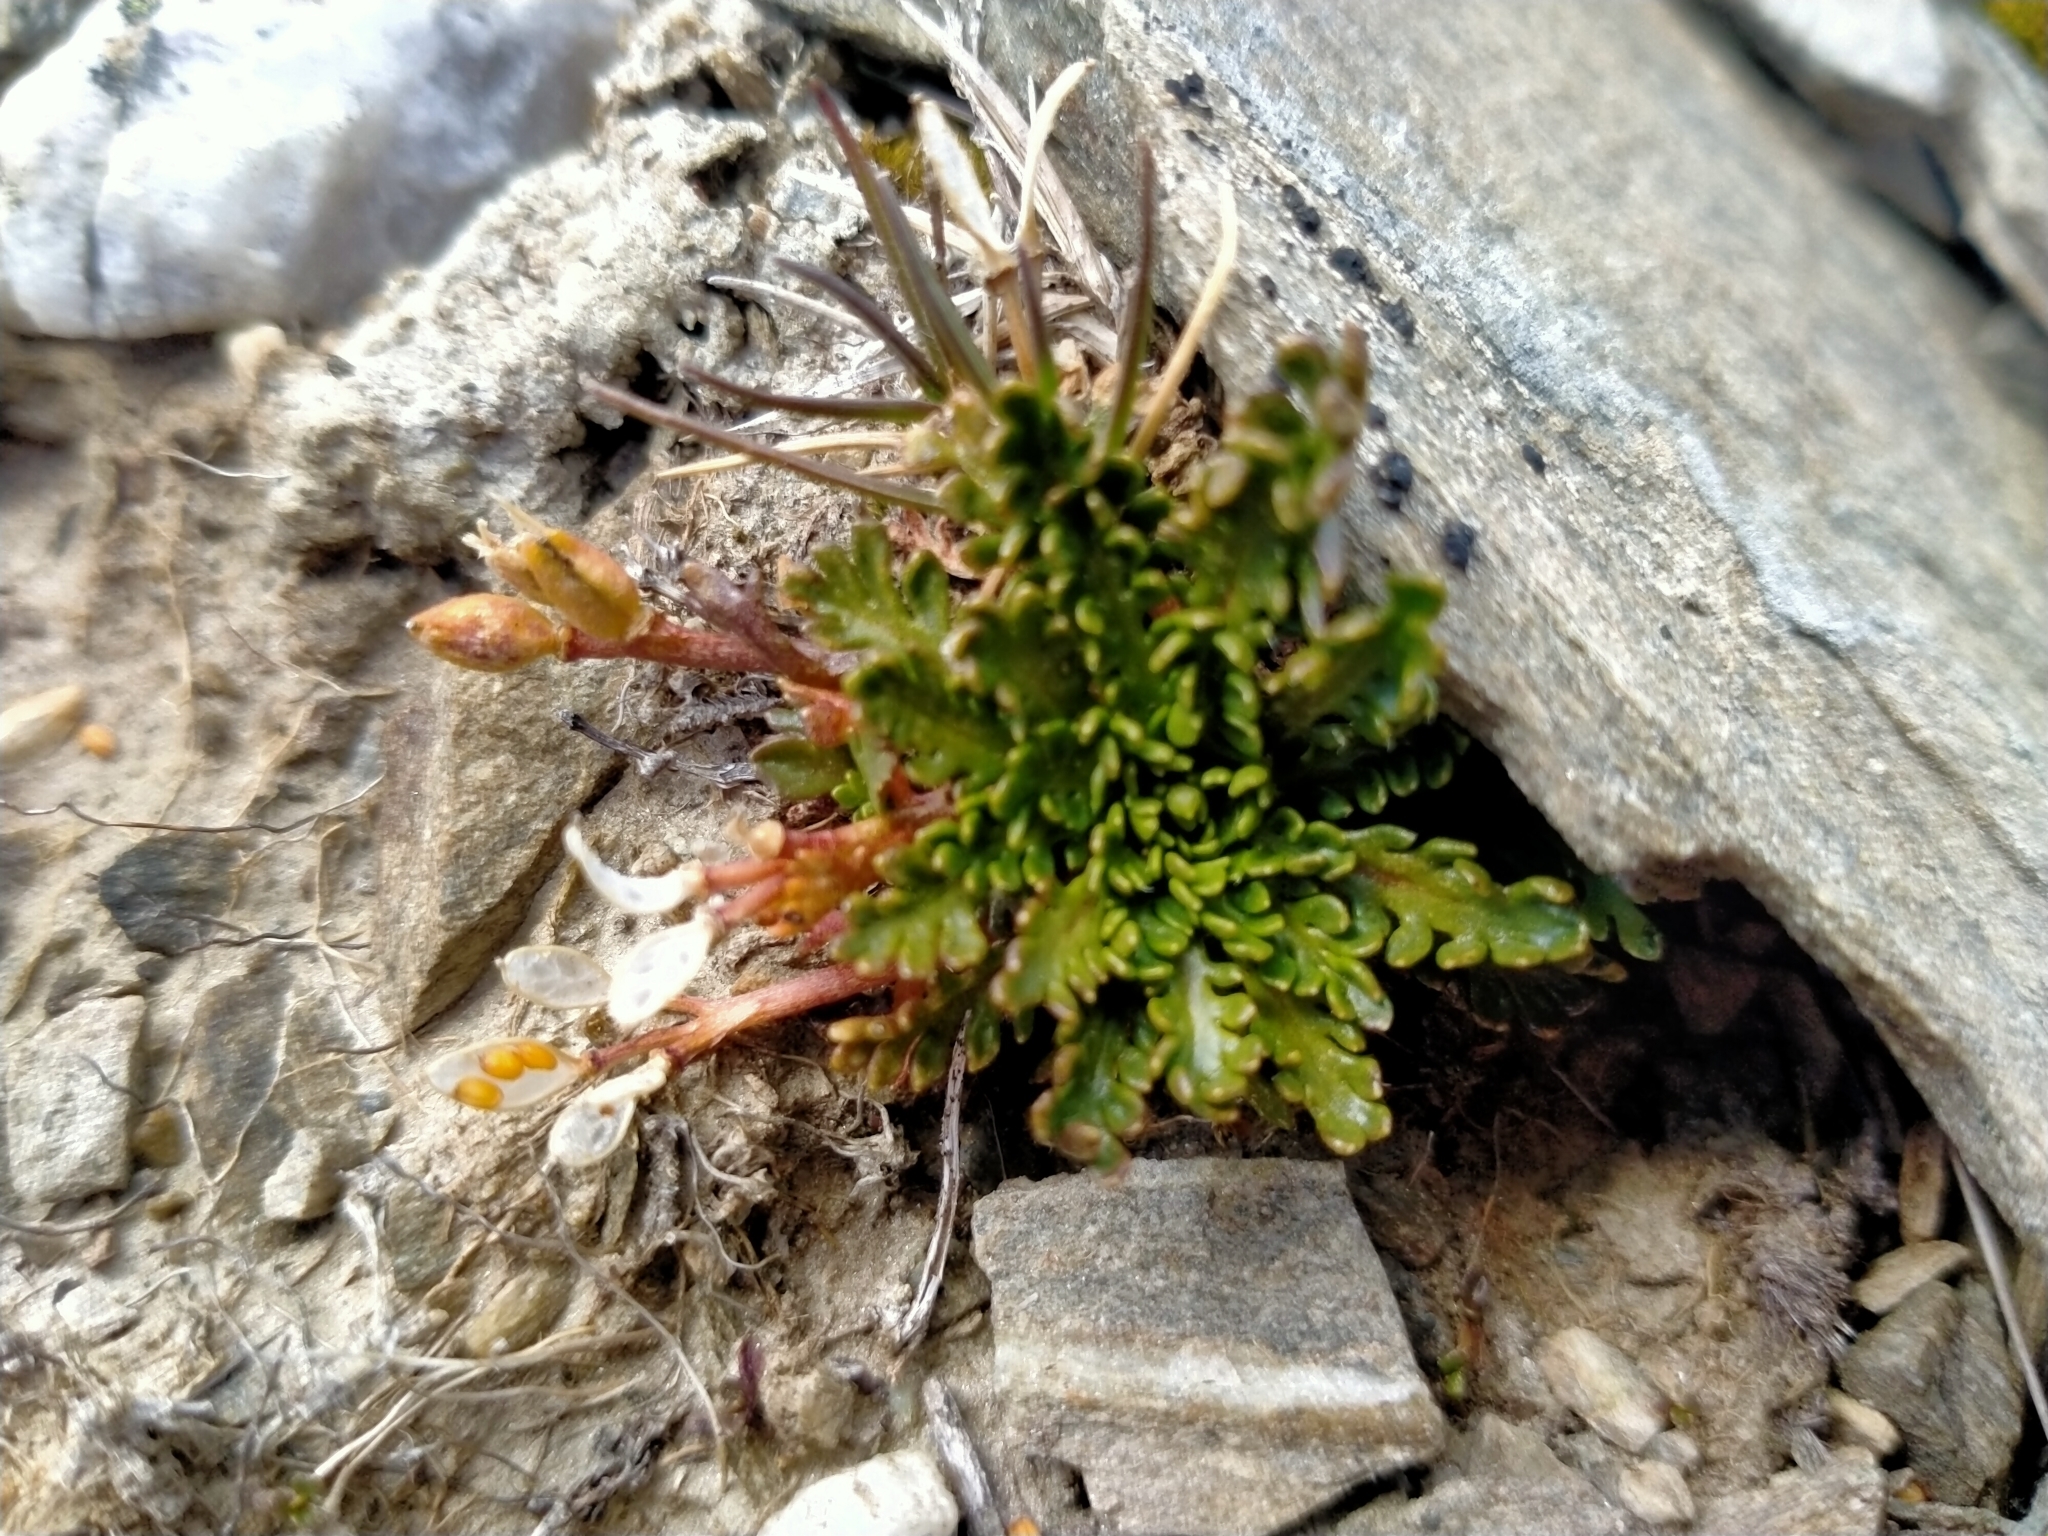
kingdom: Plantae
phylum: Tracheophyta
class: Magnoliopsida
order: Brassicales
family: Brassicaceae
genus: Pachycladon
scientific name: Pachycladon novae-zelandiae
